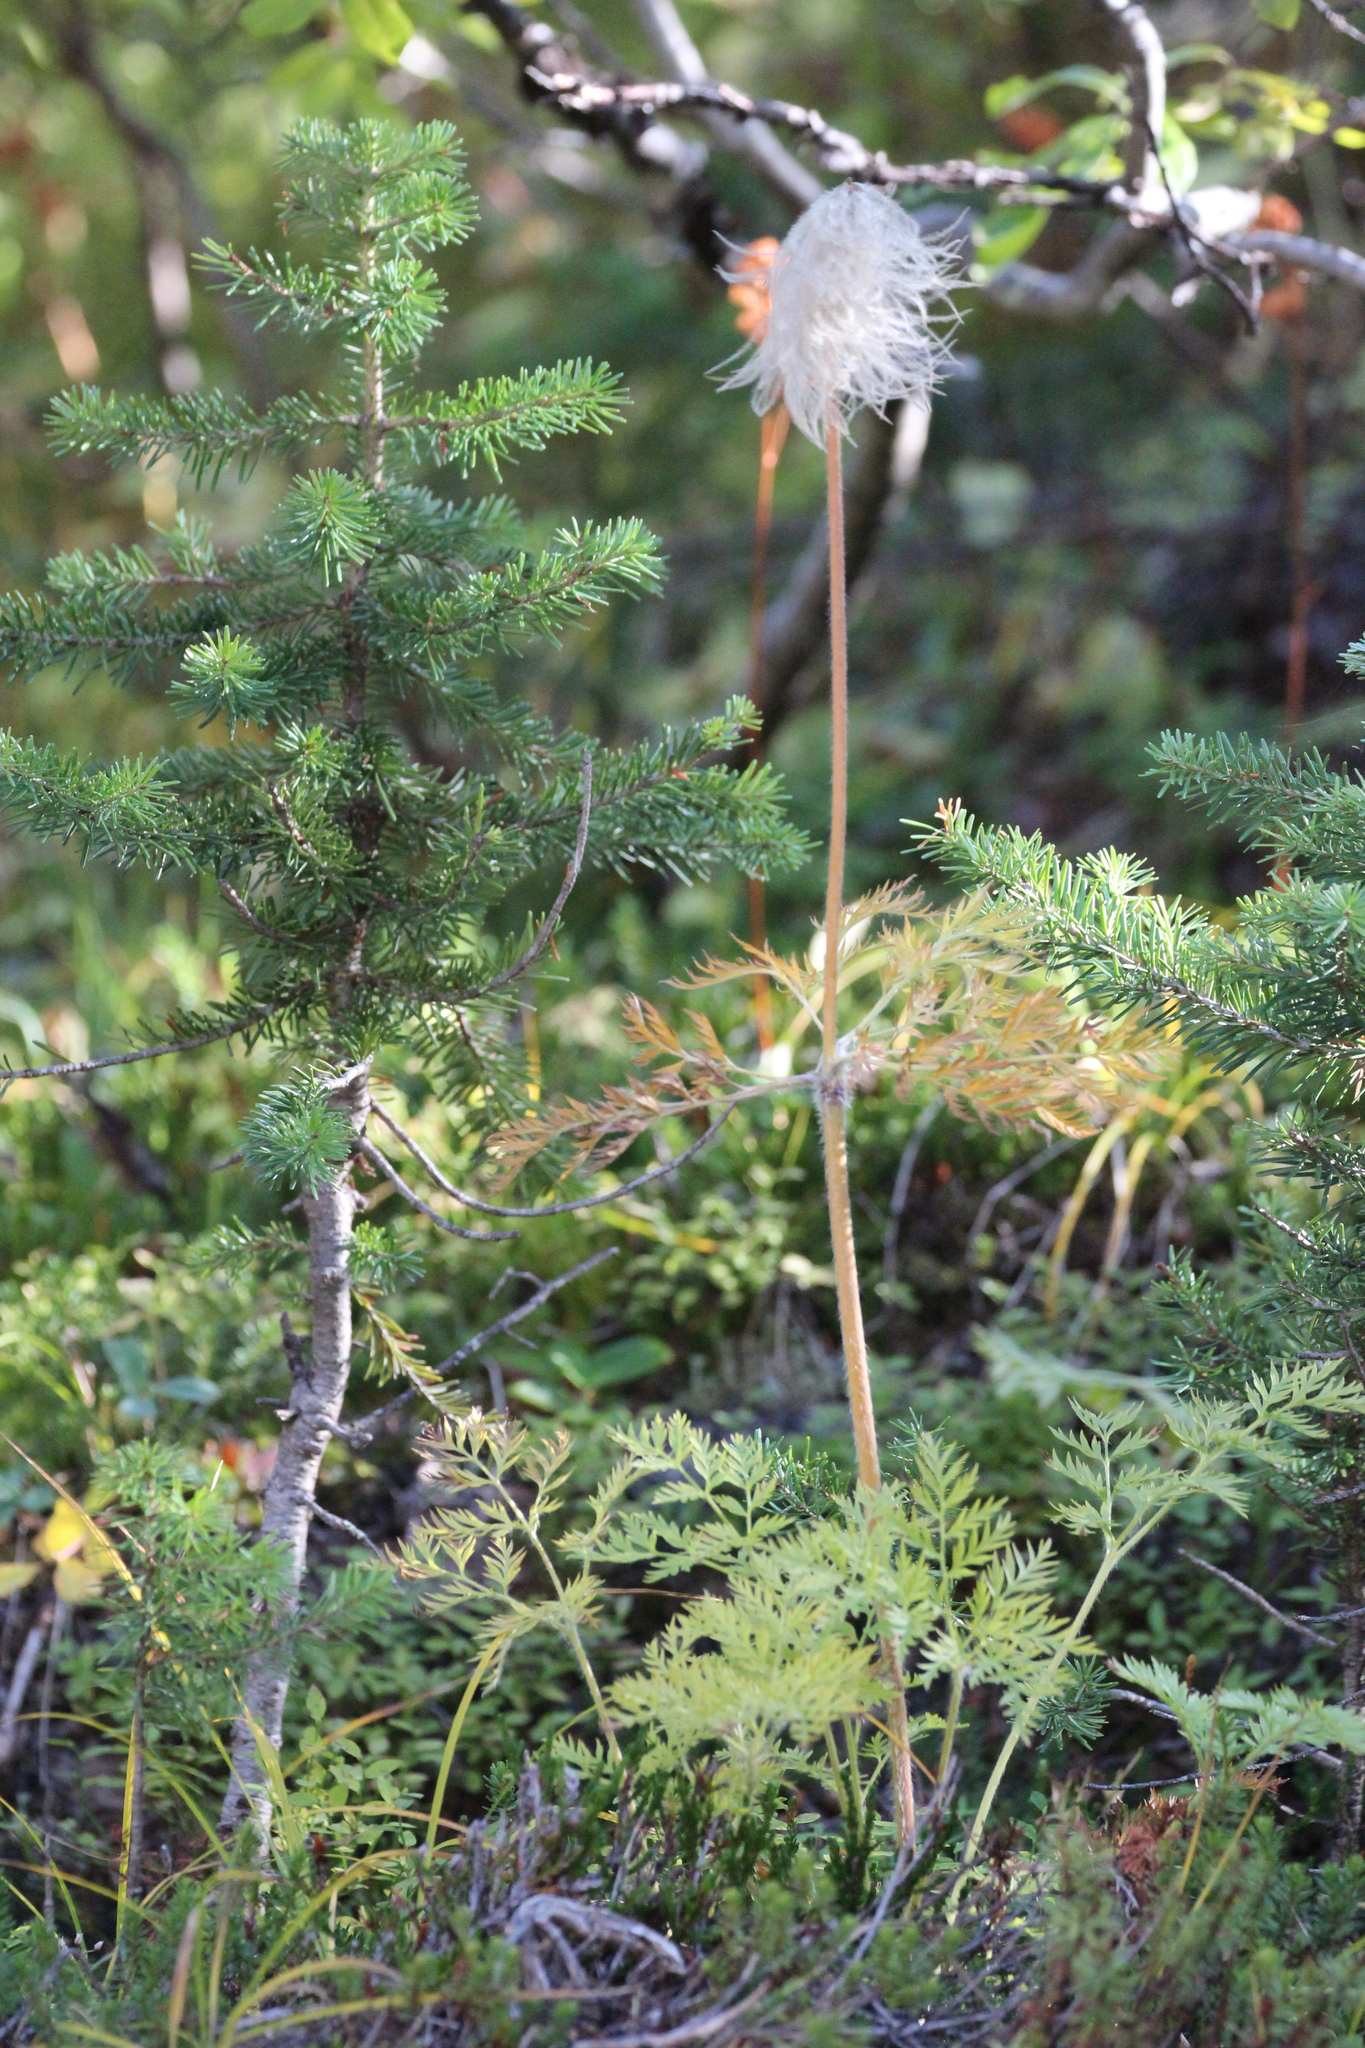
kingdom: Plantae
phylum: Tracheophyta
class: Magnoliopsida
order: Ranunculales
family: Ranunculaceae
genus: Pulsatilla
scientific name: Pulsatilla occidentalis
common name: Mountain pasqueflower
